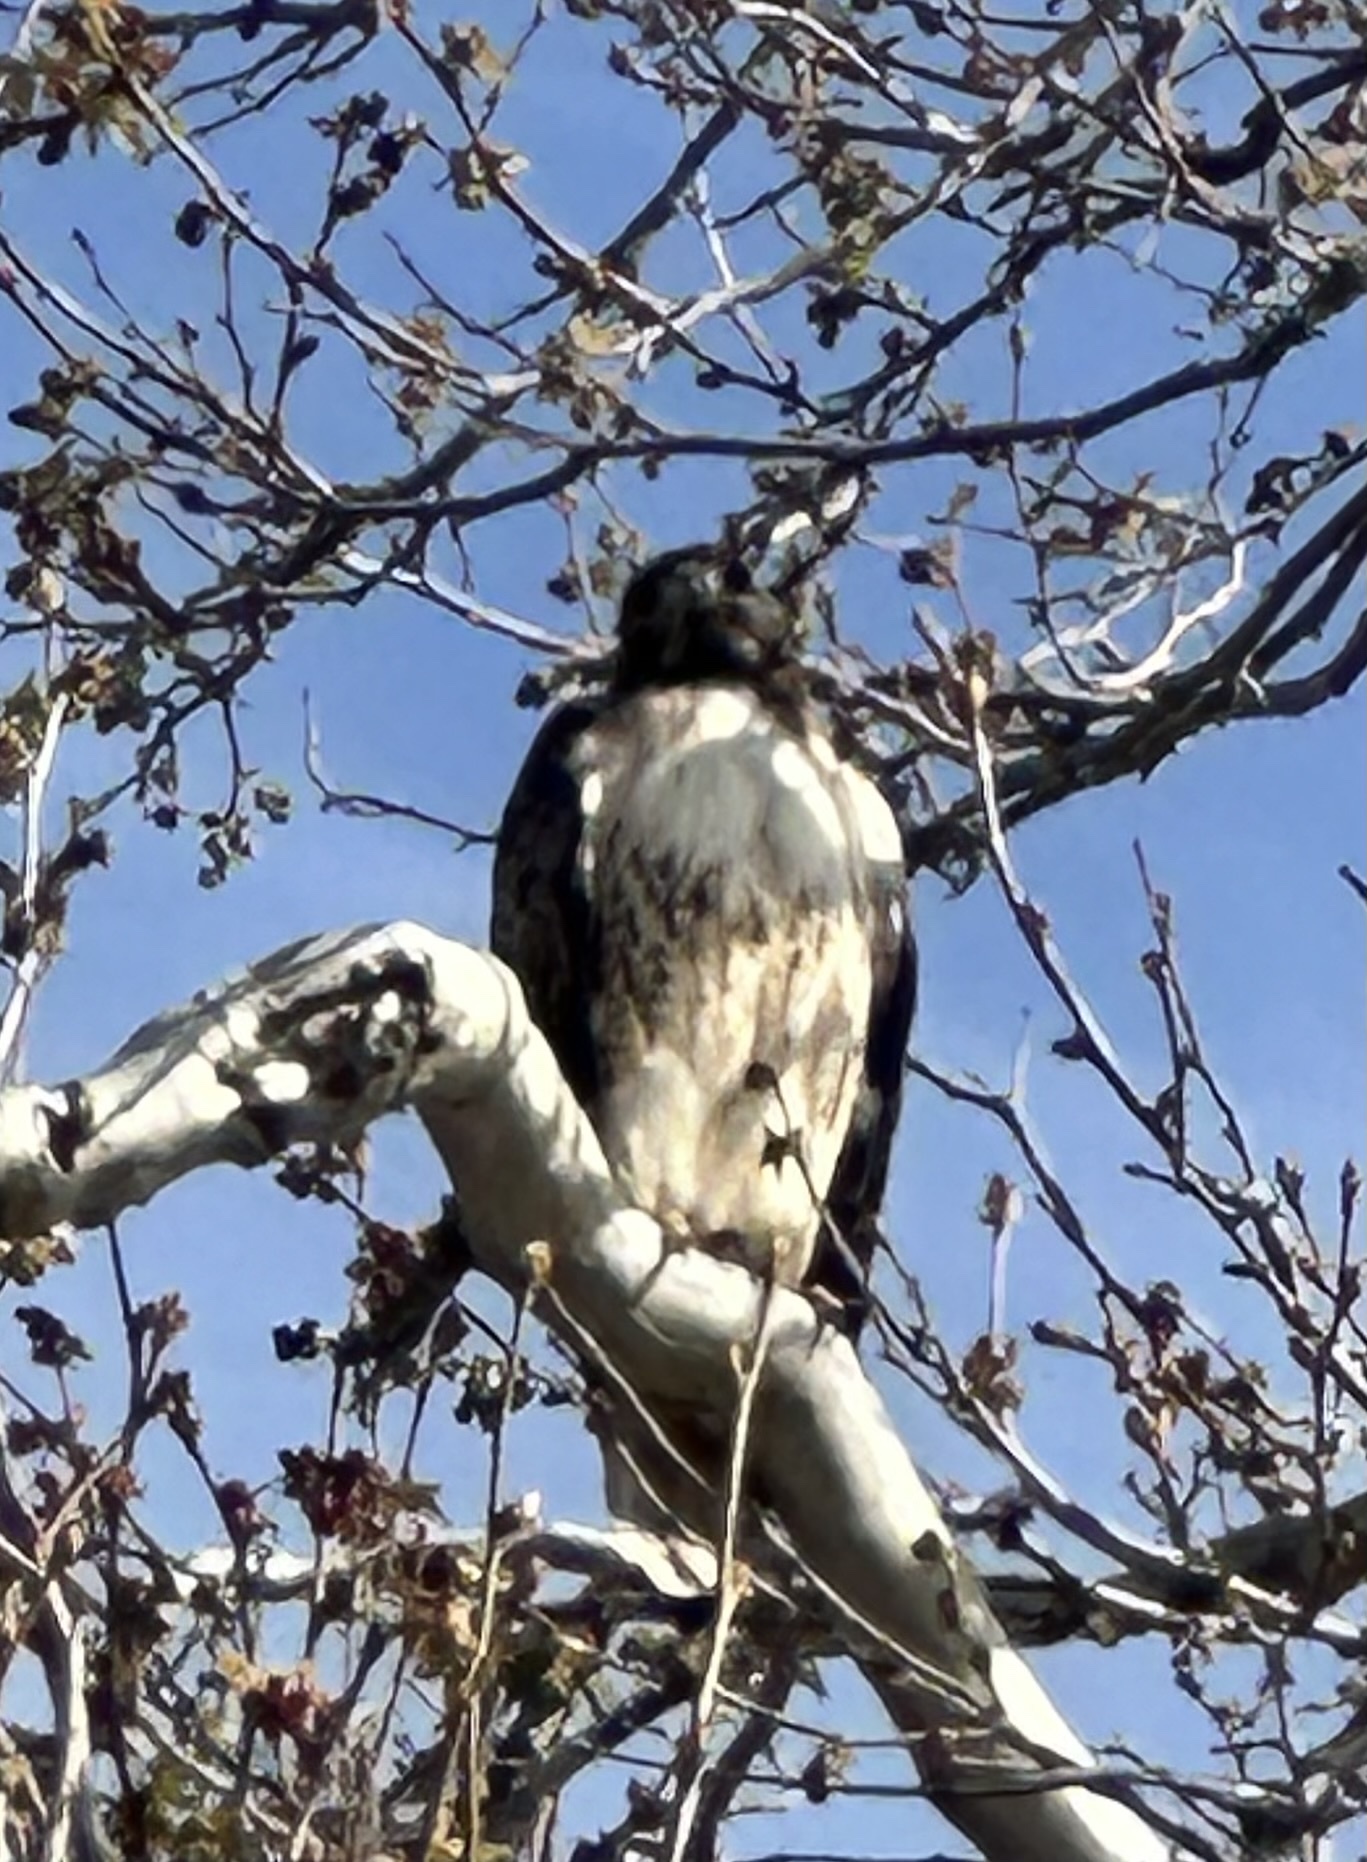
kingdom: Animalia
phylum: Chordata
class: Aves
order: Accipitriformes
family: Accipitridae
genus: Buteo
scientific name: Buteo jamaicensis
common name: Red-tailed hawk
